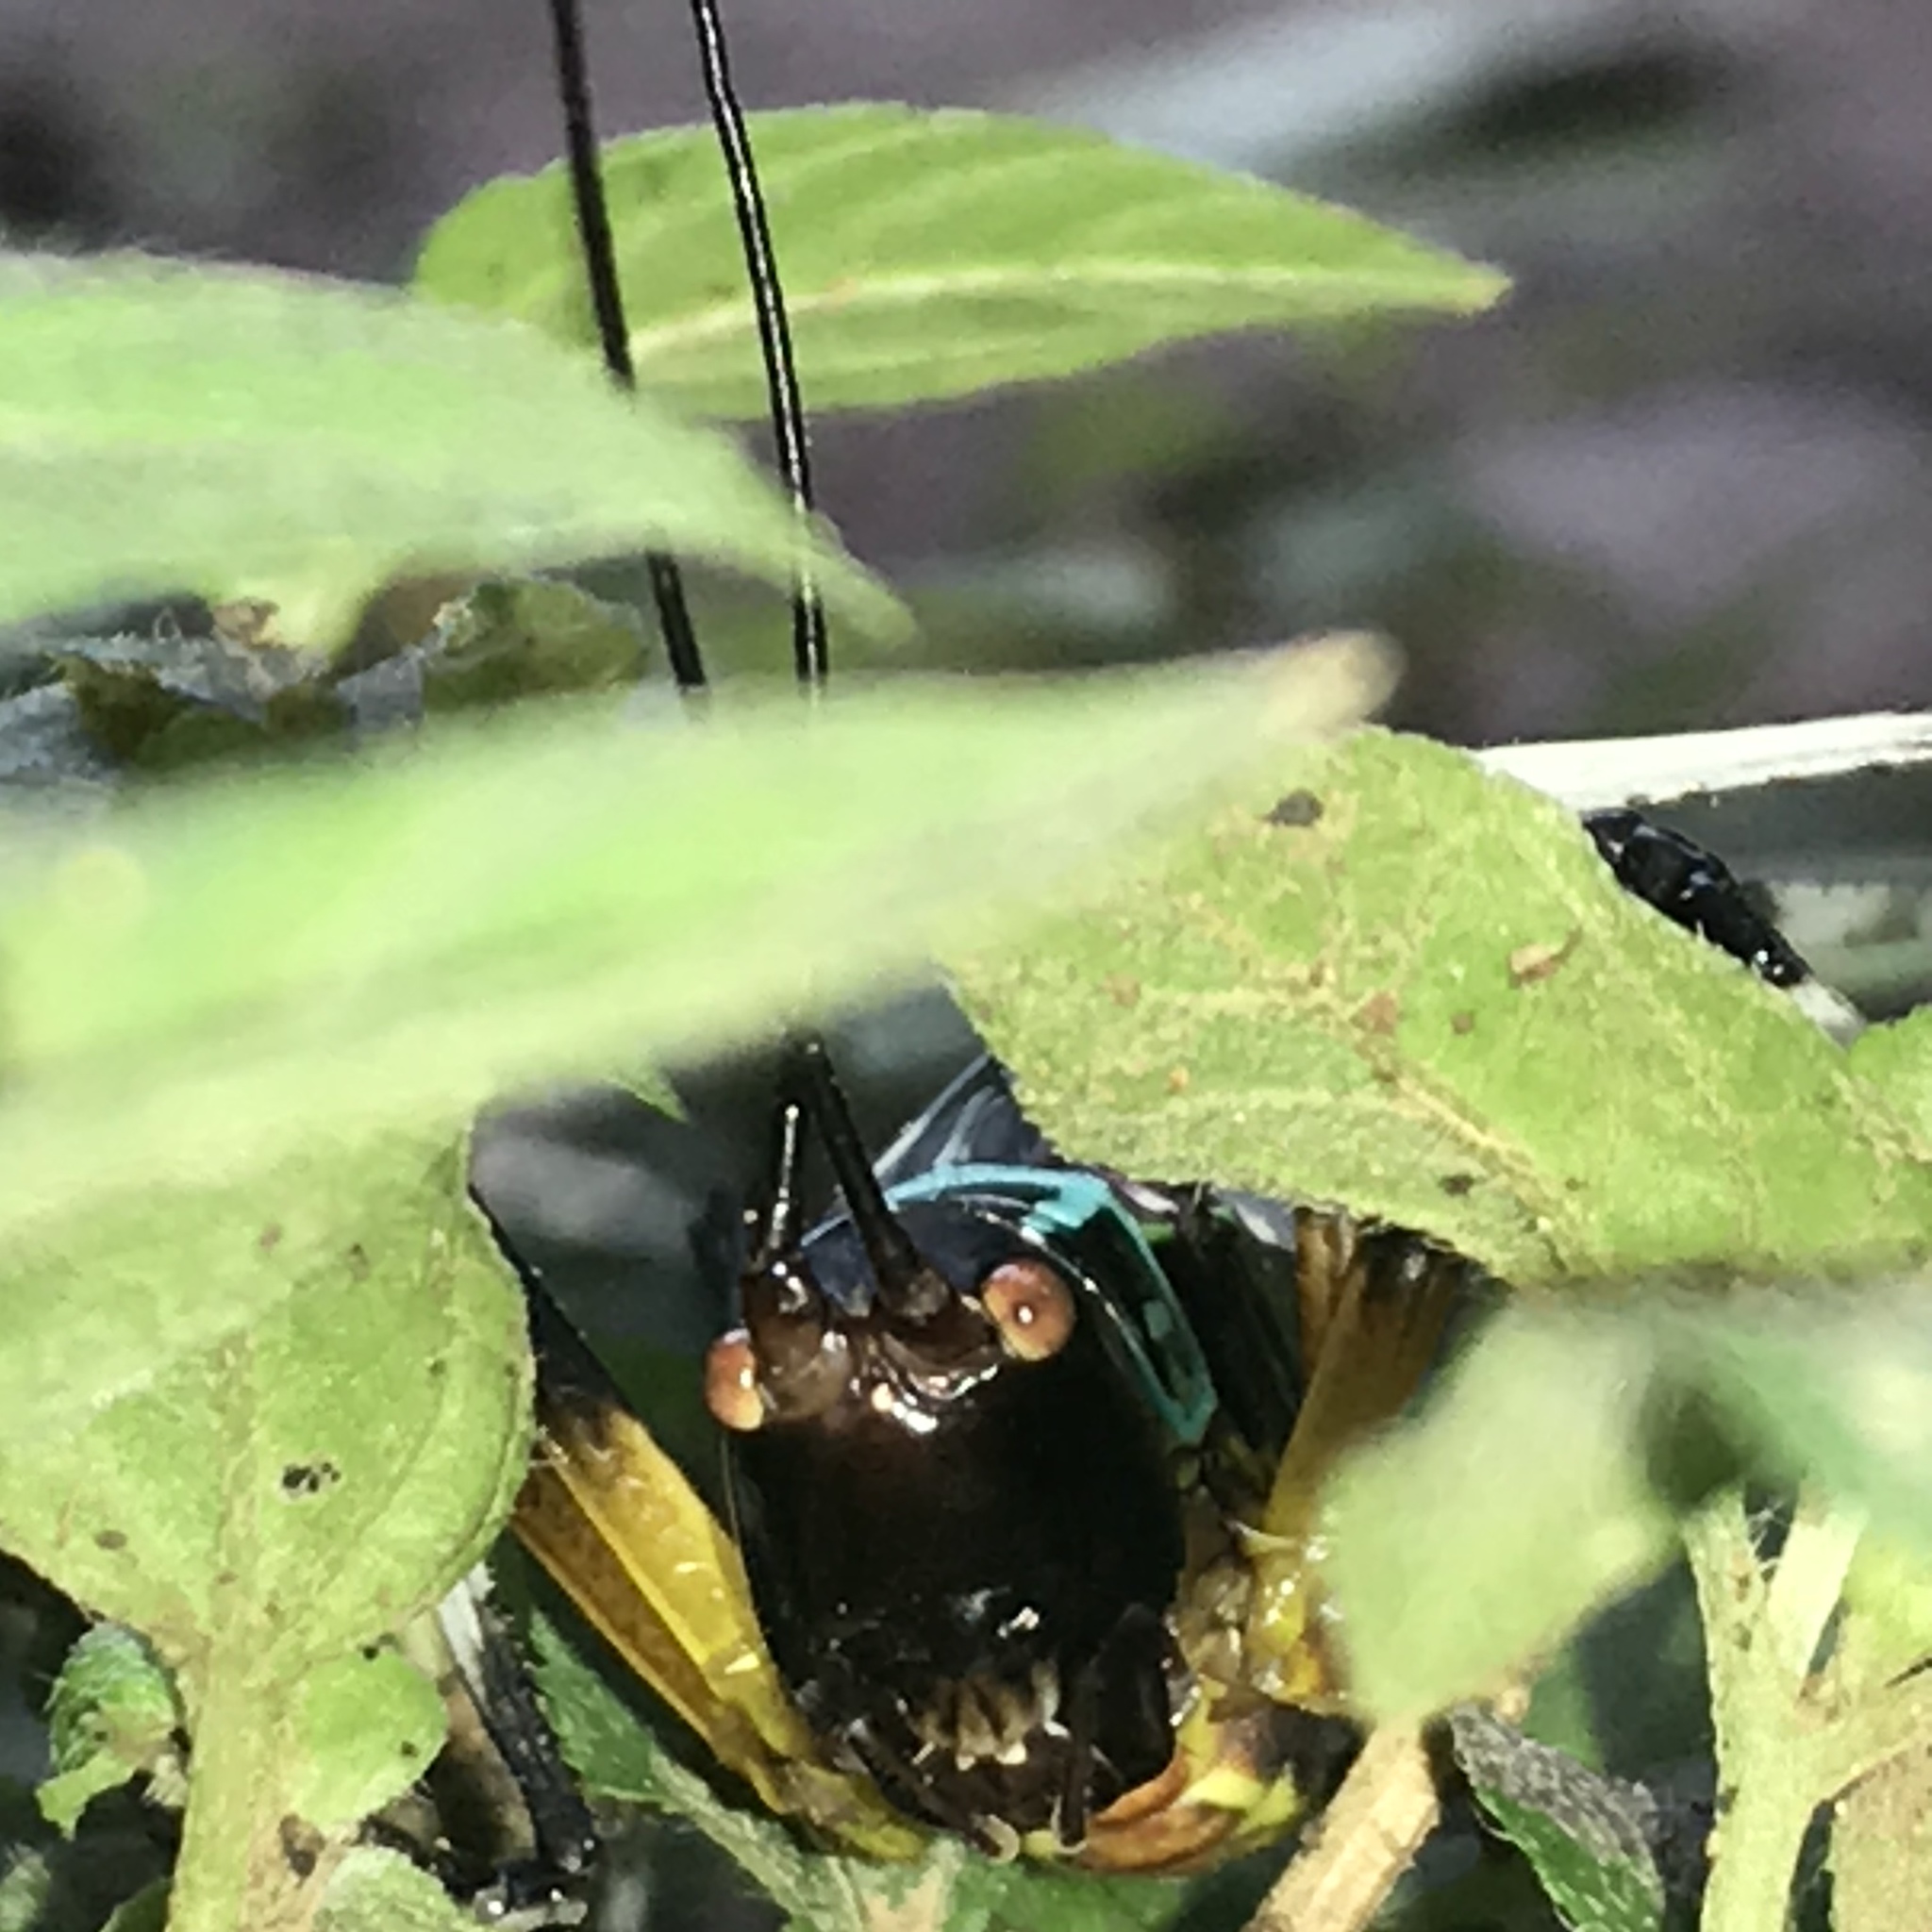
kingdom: Animalia
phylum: Arthropoda
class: Insecta
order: Orthoptera
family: Tettigoniidae
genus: Pterophylla
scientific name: Pterophylla beltrani
